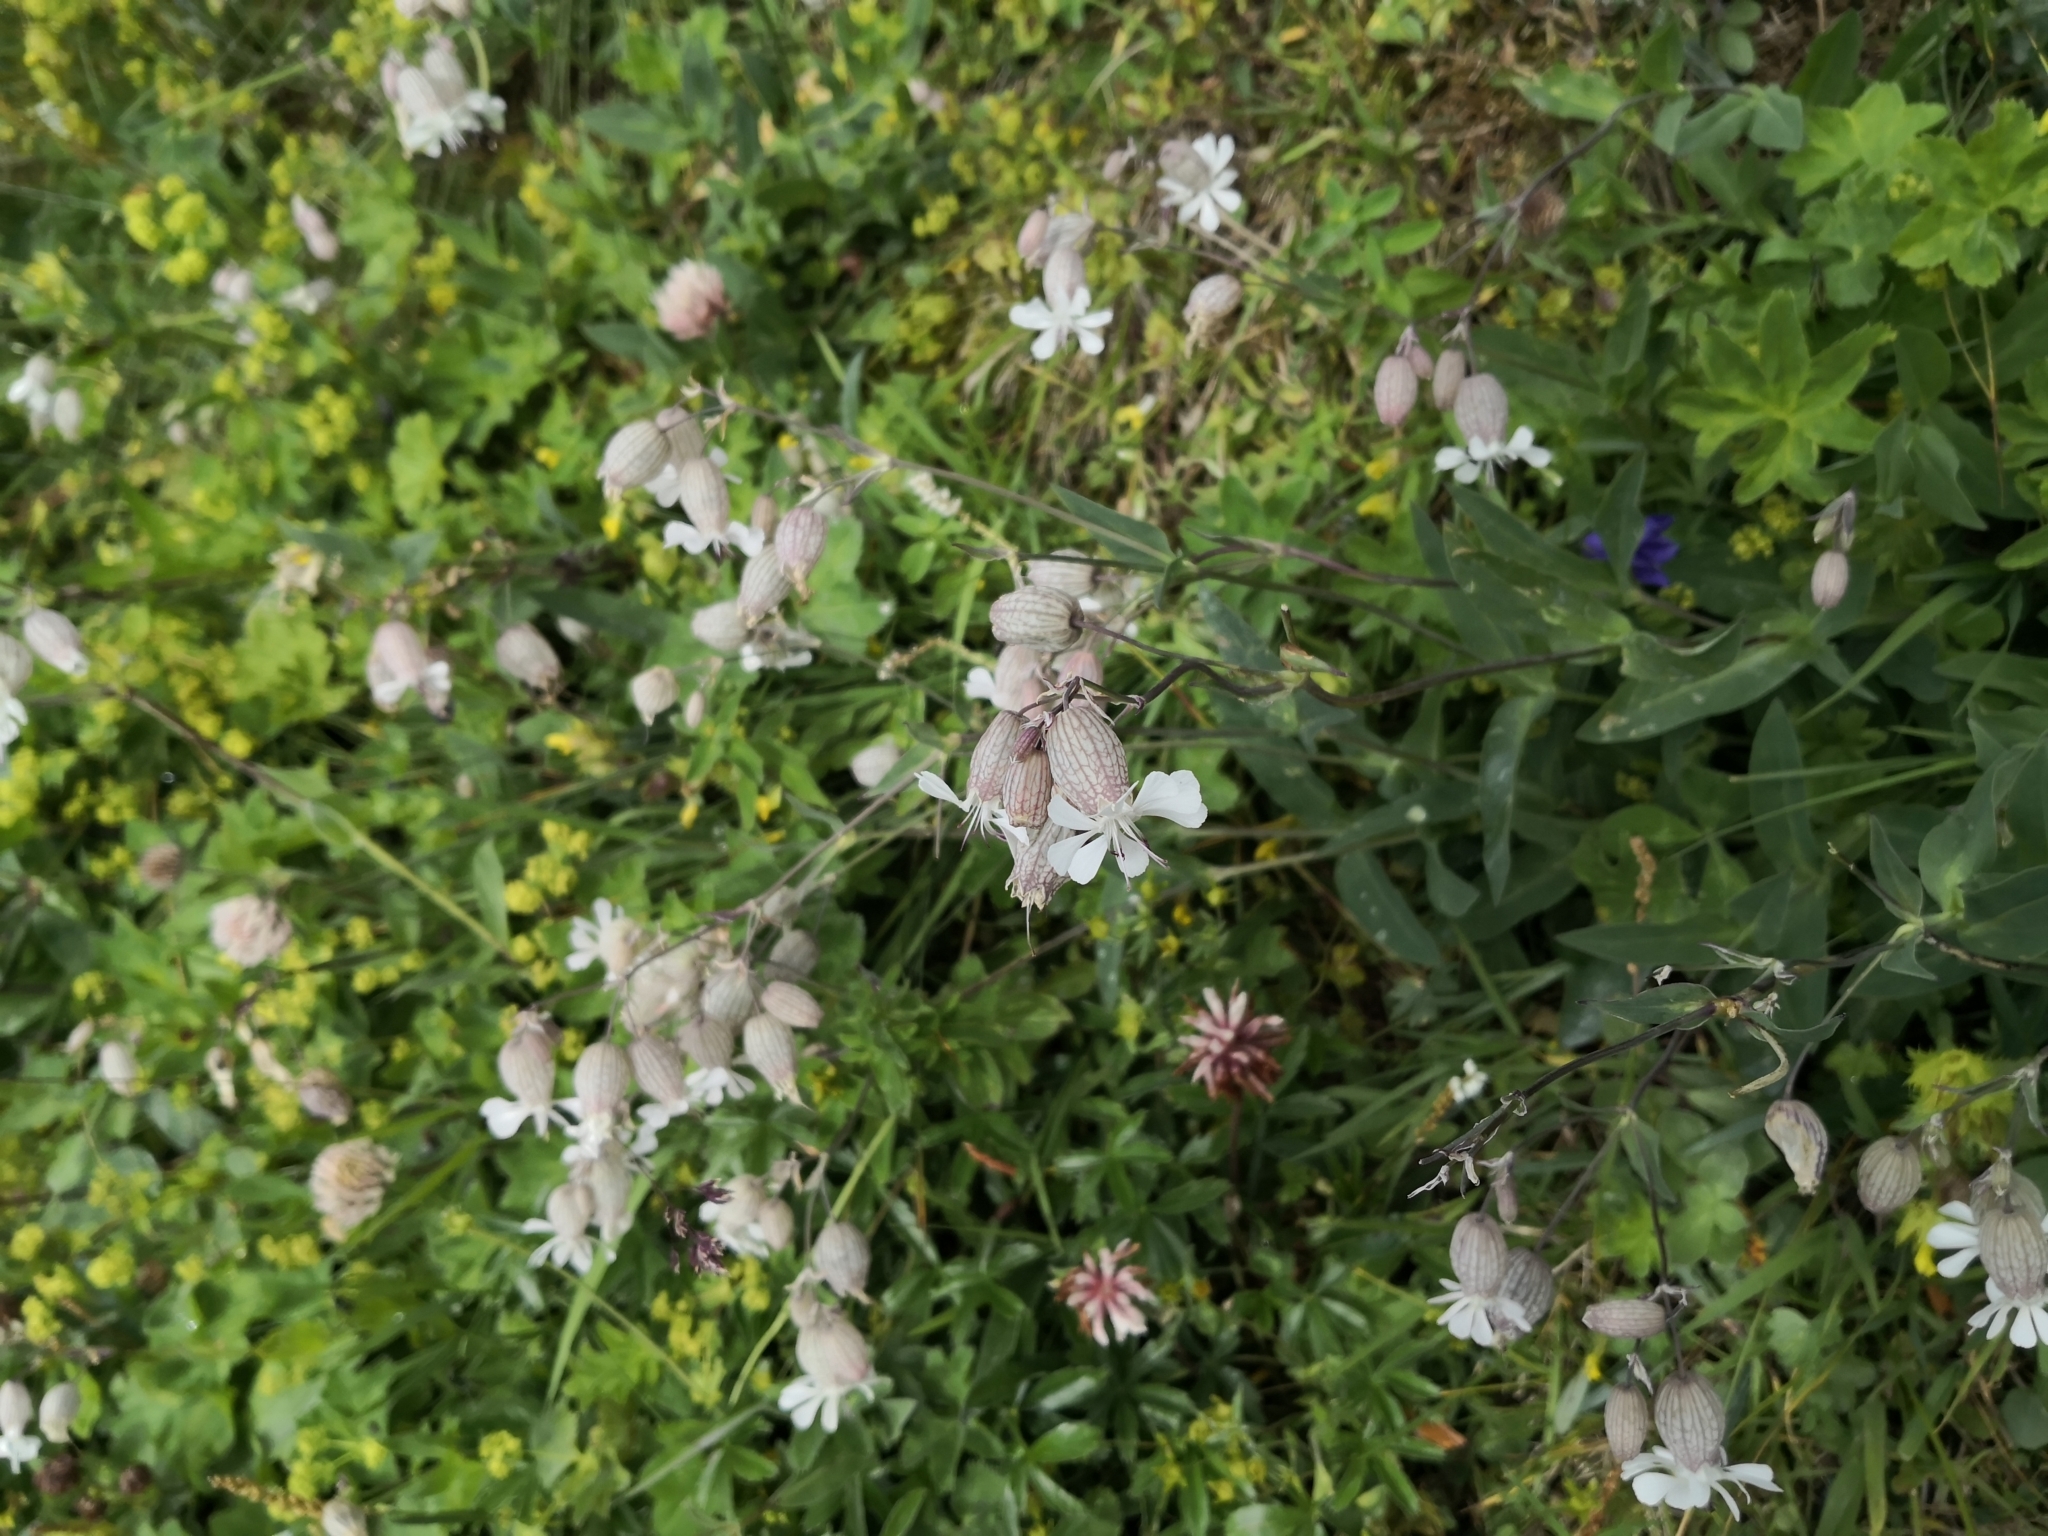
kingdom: Plantae
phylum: Tracheophyta
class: Magnoliopsida
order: Caryophyllales
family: Caryophyllaceae
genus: Silene
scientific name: Silene vulgaris
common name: Bladder campion
